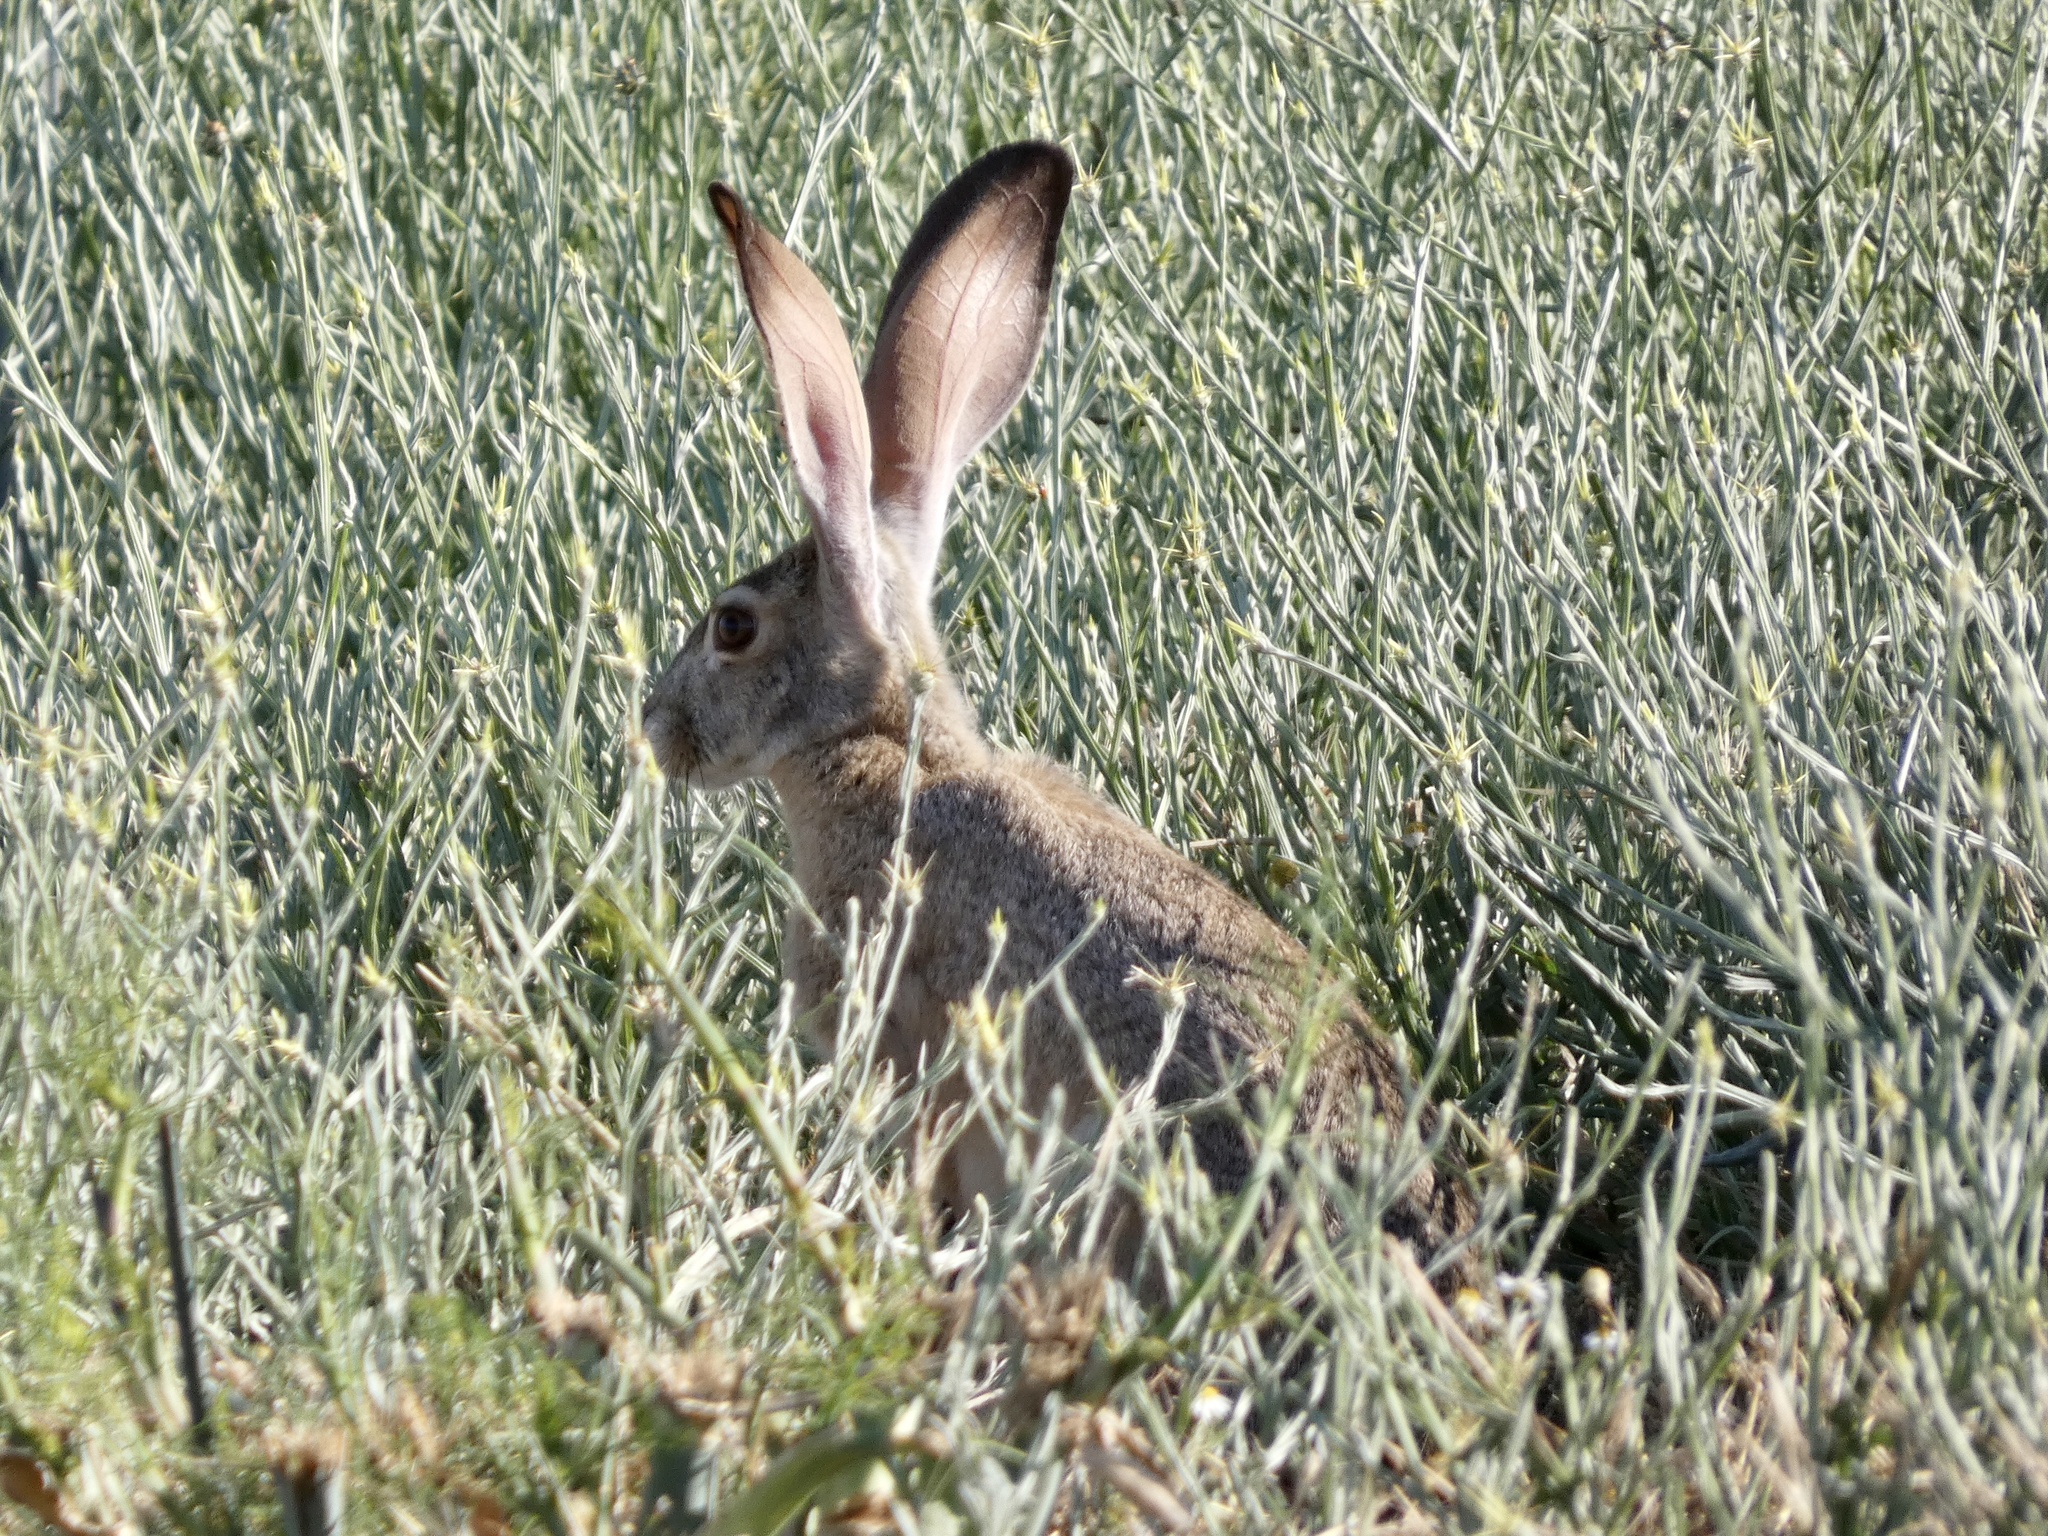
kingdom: Animalia
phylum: Chordata
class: Mammalia
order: Lagomorpha
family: Leporidae
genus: Lepus
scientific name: Lepus californicus
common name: Black-tailed jackrabbit
